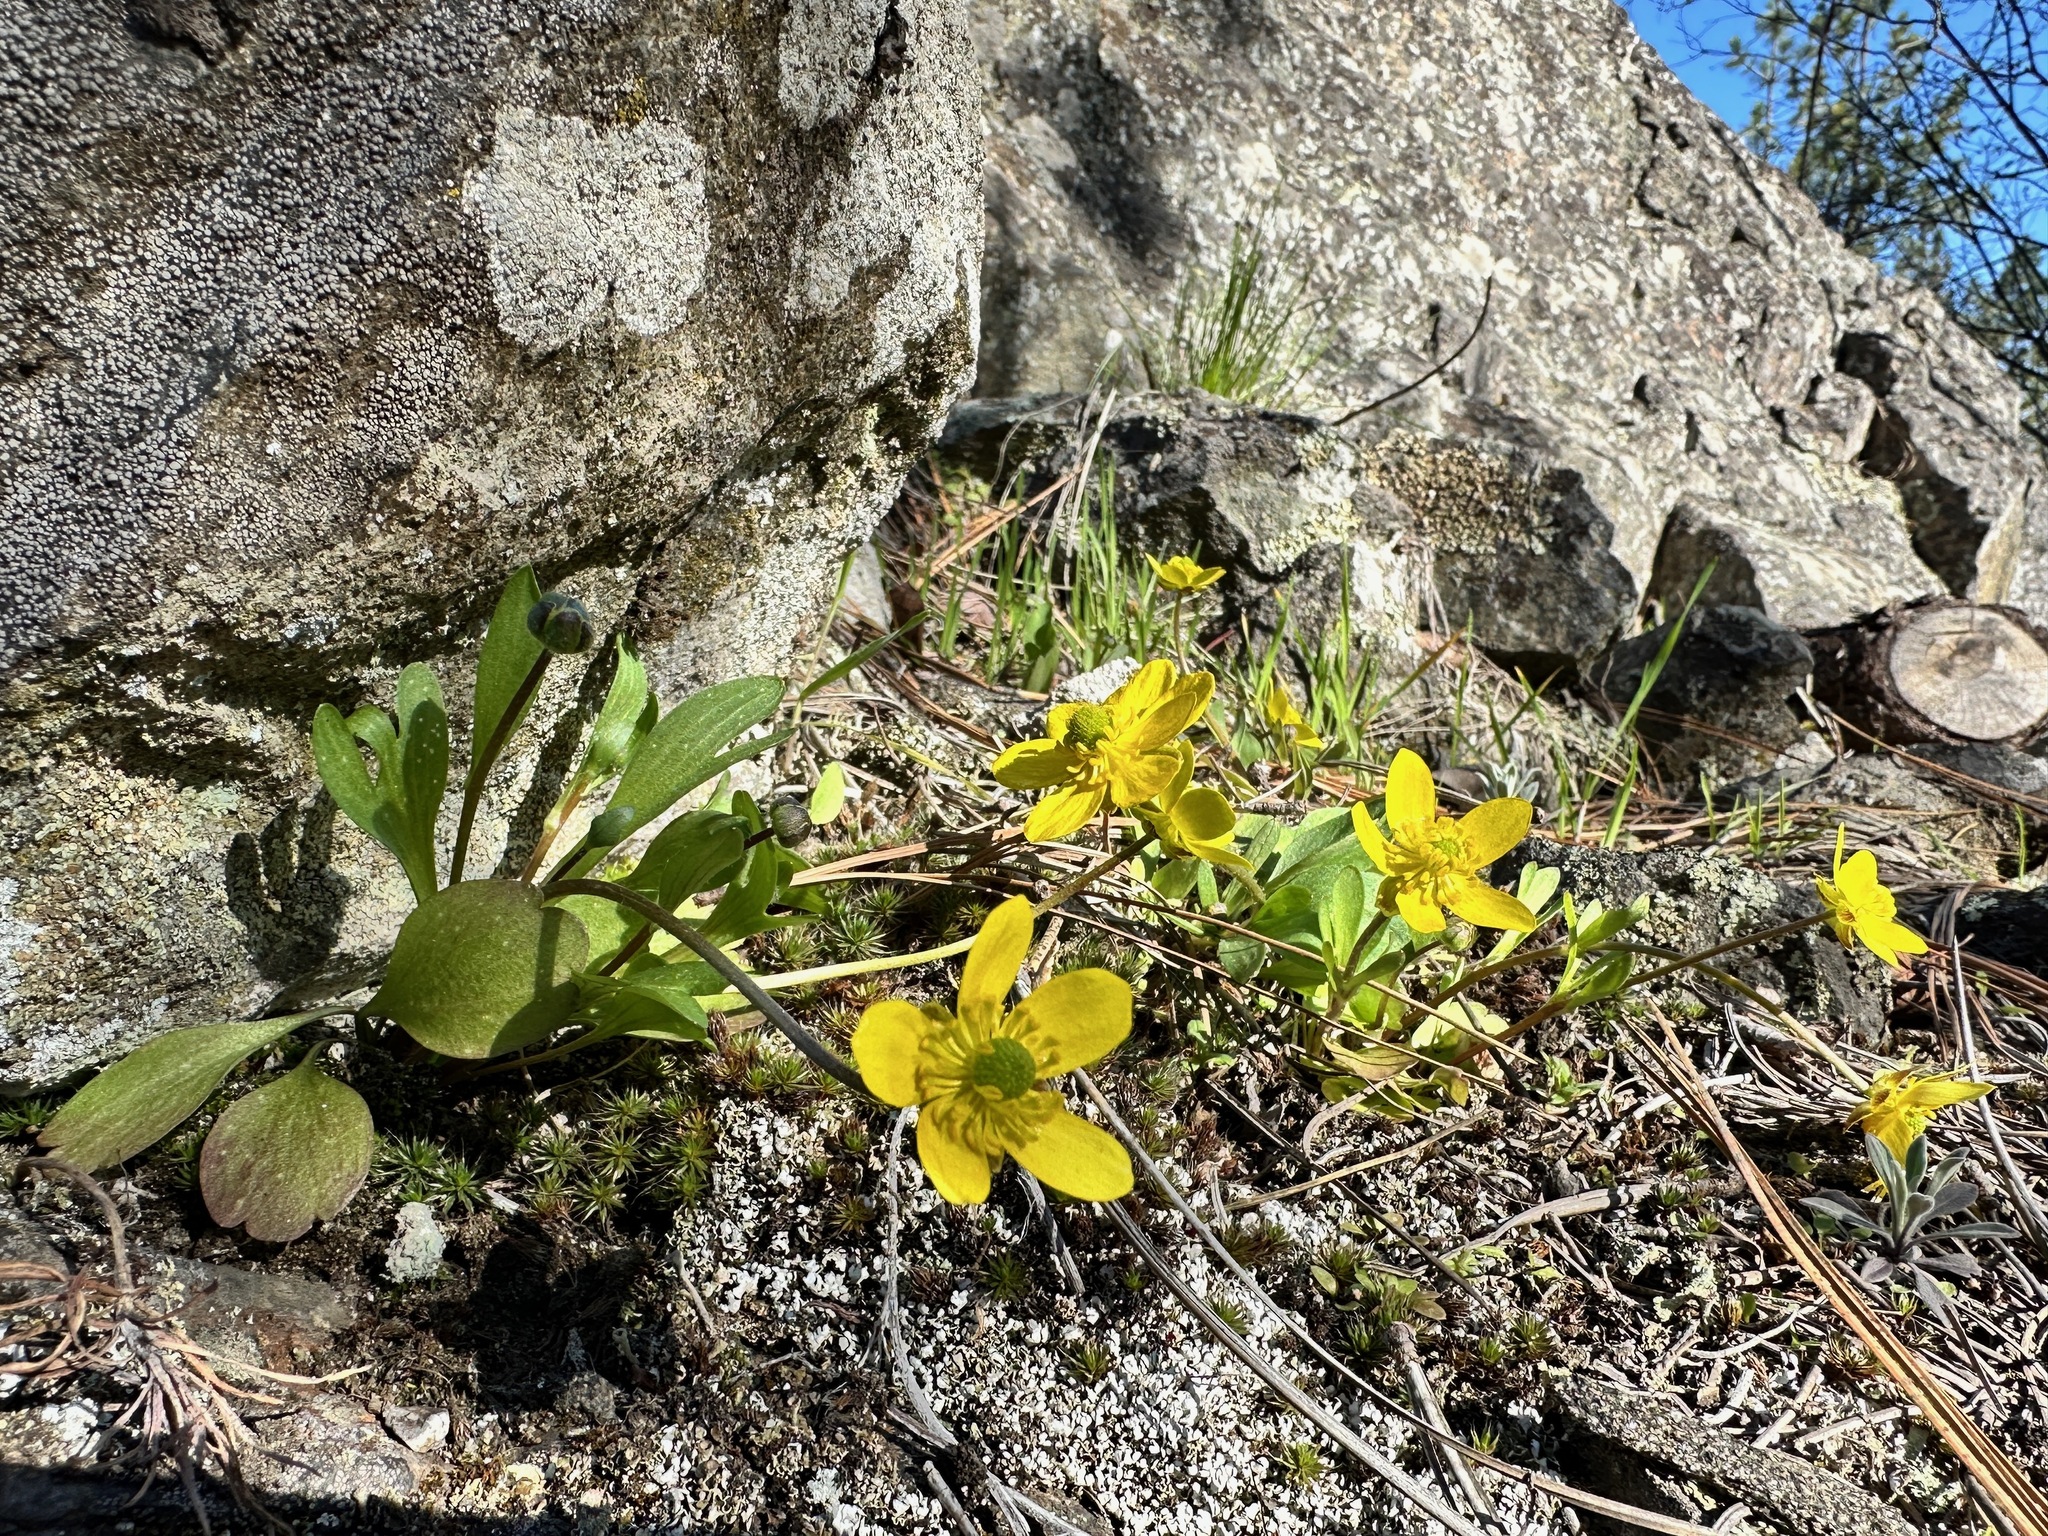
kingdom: Plantae
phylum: Tracheophyta
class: Magnoliopsida
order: Ranunculales
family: Ranunculaceae
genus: Ranunculus
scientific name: Ranunculus glaberrimus
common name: Sagebrush buttercup
